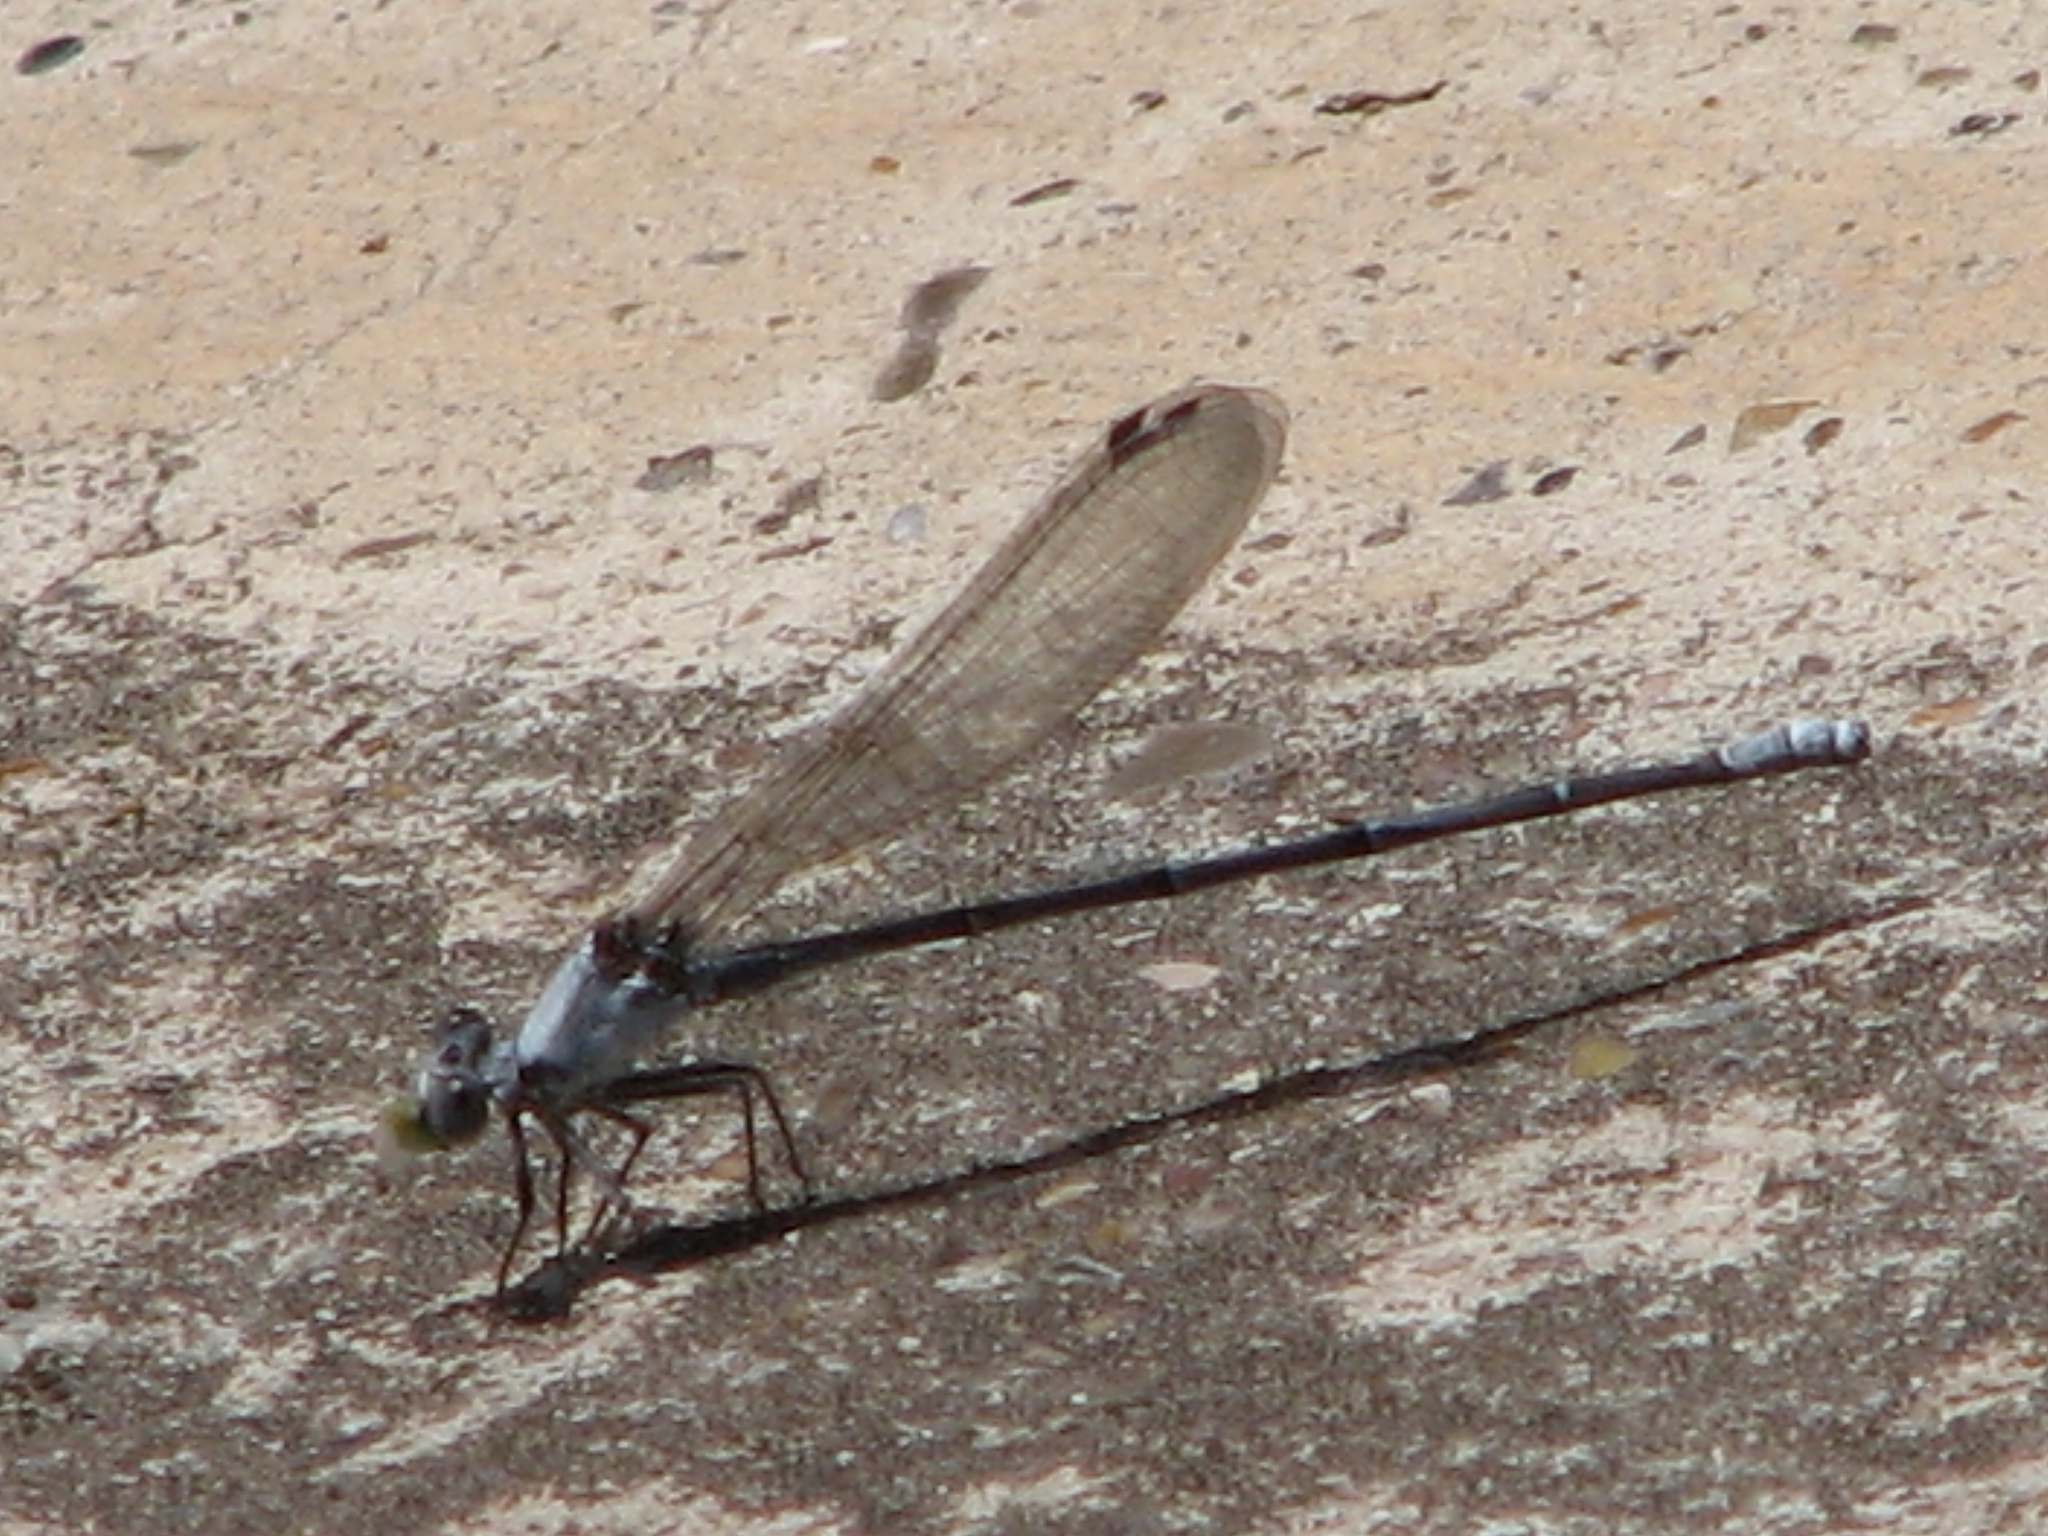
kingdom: Animalia
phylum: Arthropoda
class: Insecta
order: Odonata
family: Coenagrionidae
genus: Argia
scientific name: Argia moesta
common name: Powdered dancer
